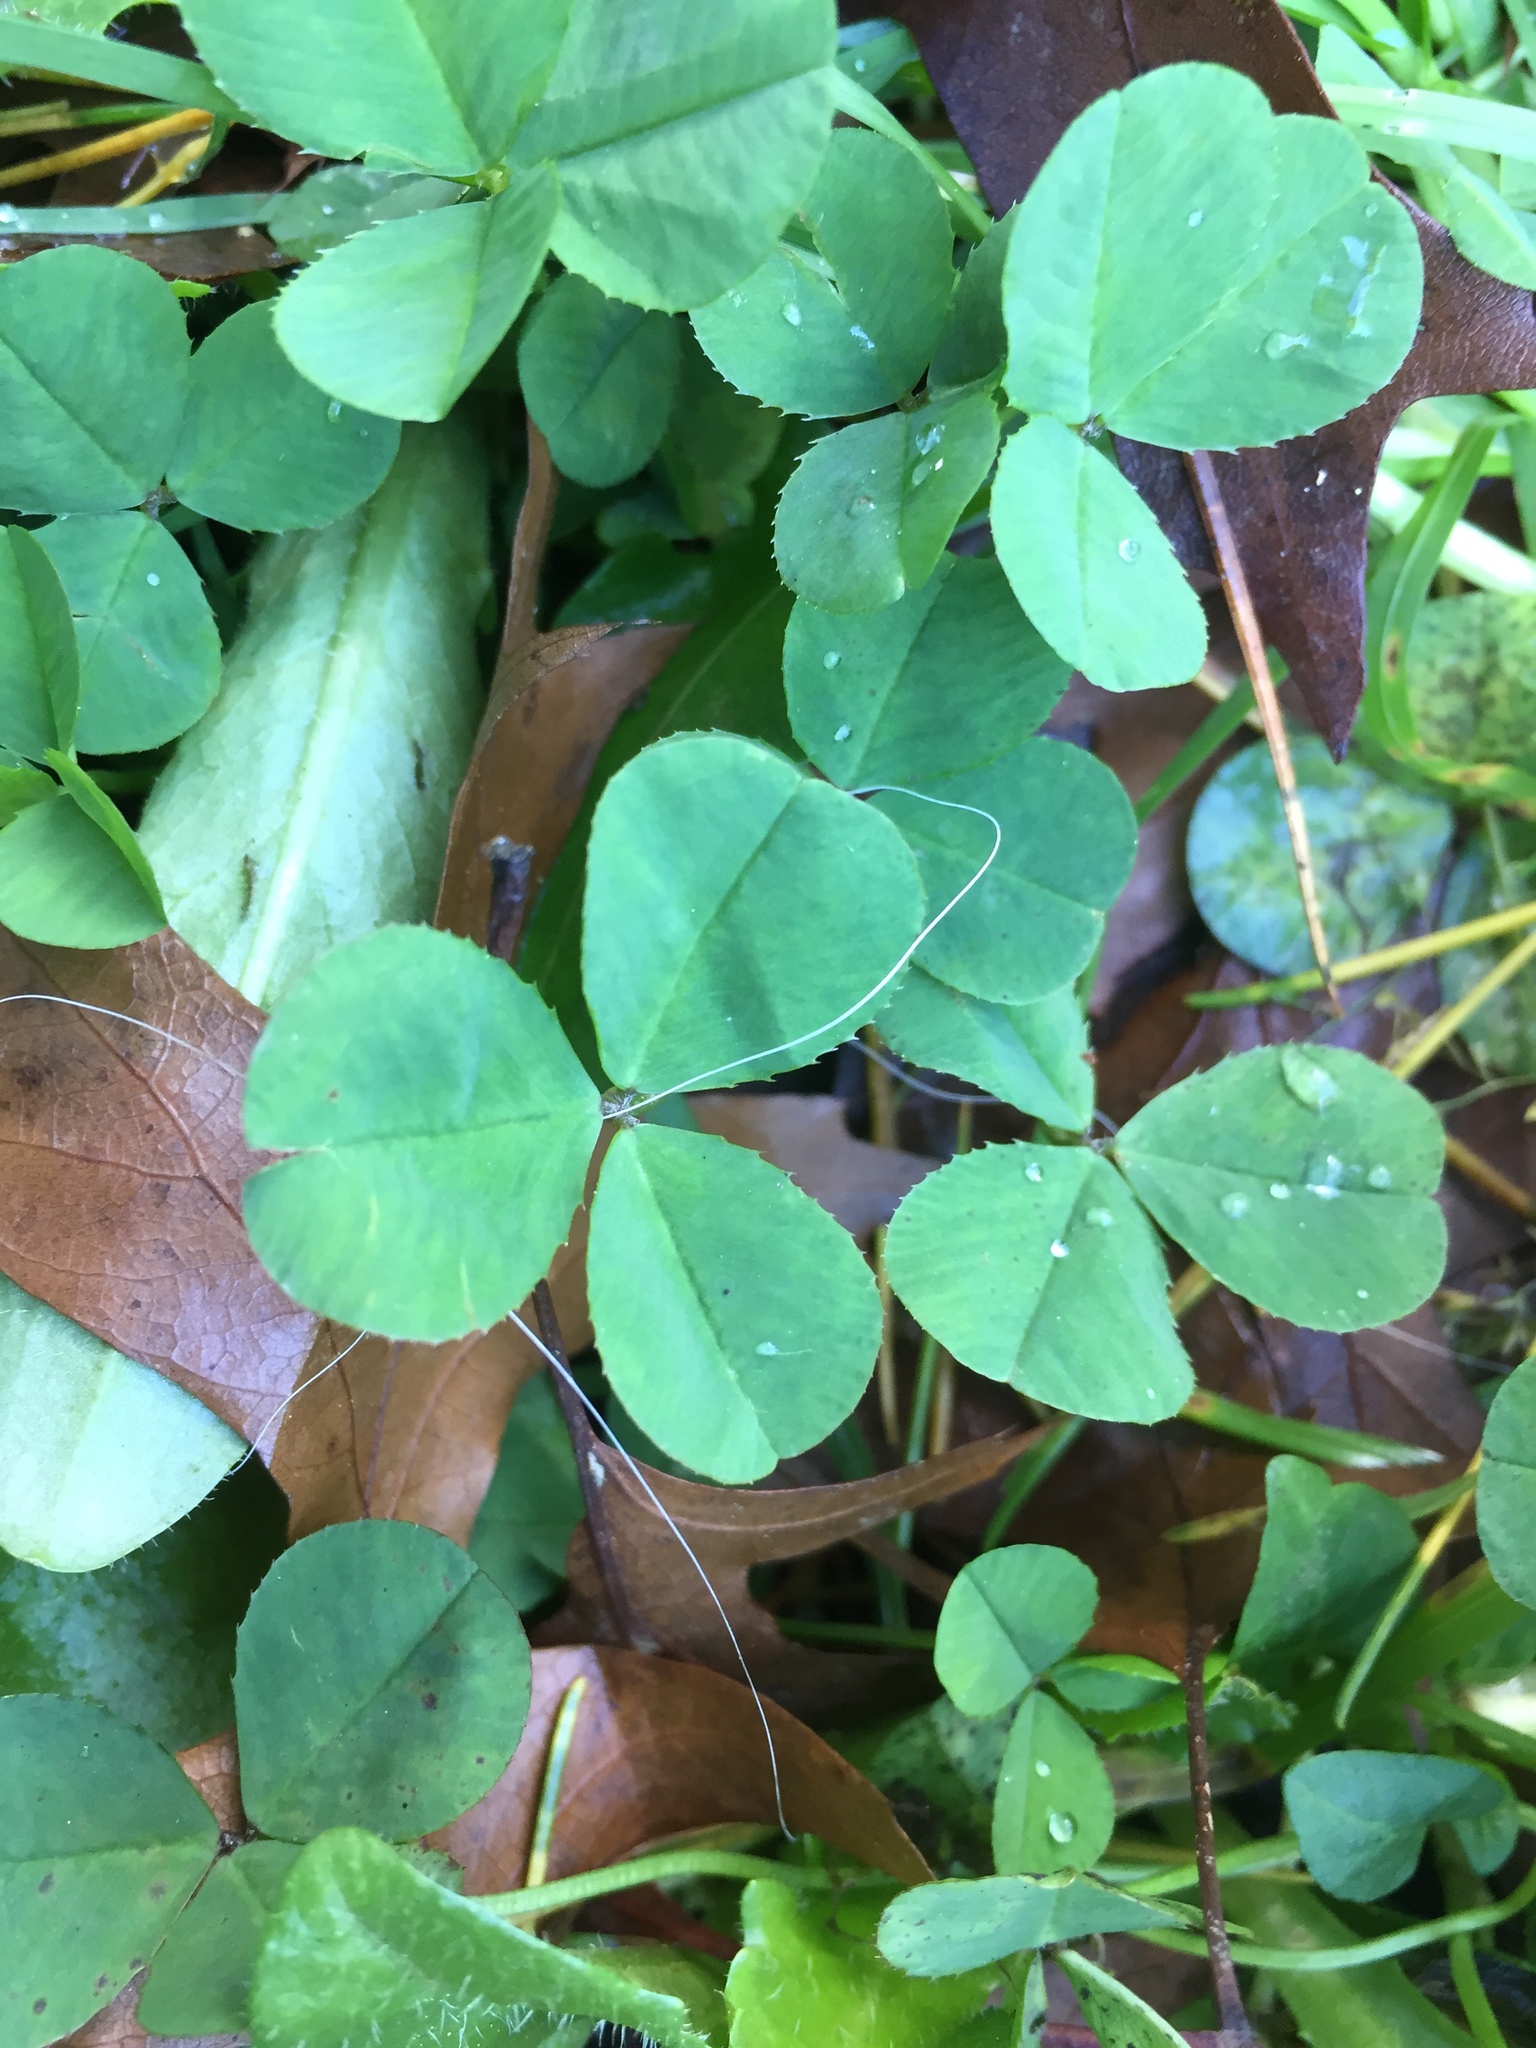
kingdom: Plantae
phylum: Tracheophyta
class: Magnoliopsida
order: Fabales
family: Fabaceae
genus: Trifolium
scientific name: Trifolium repens
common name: White clover
